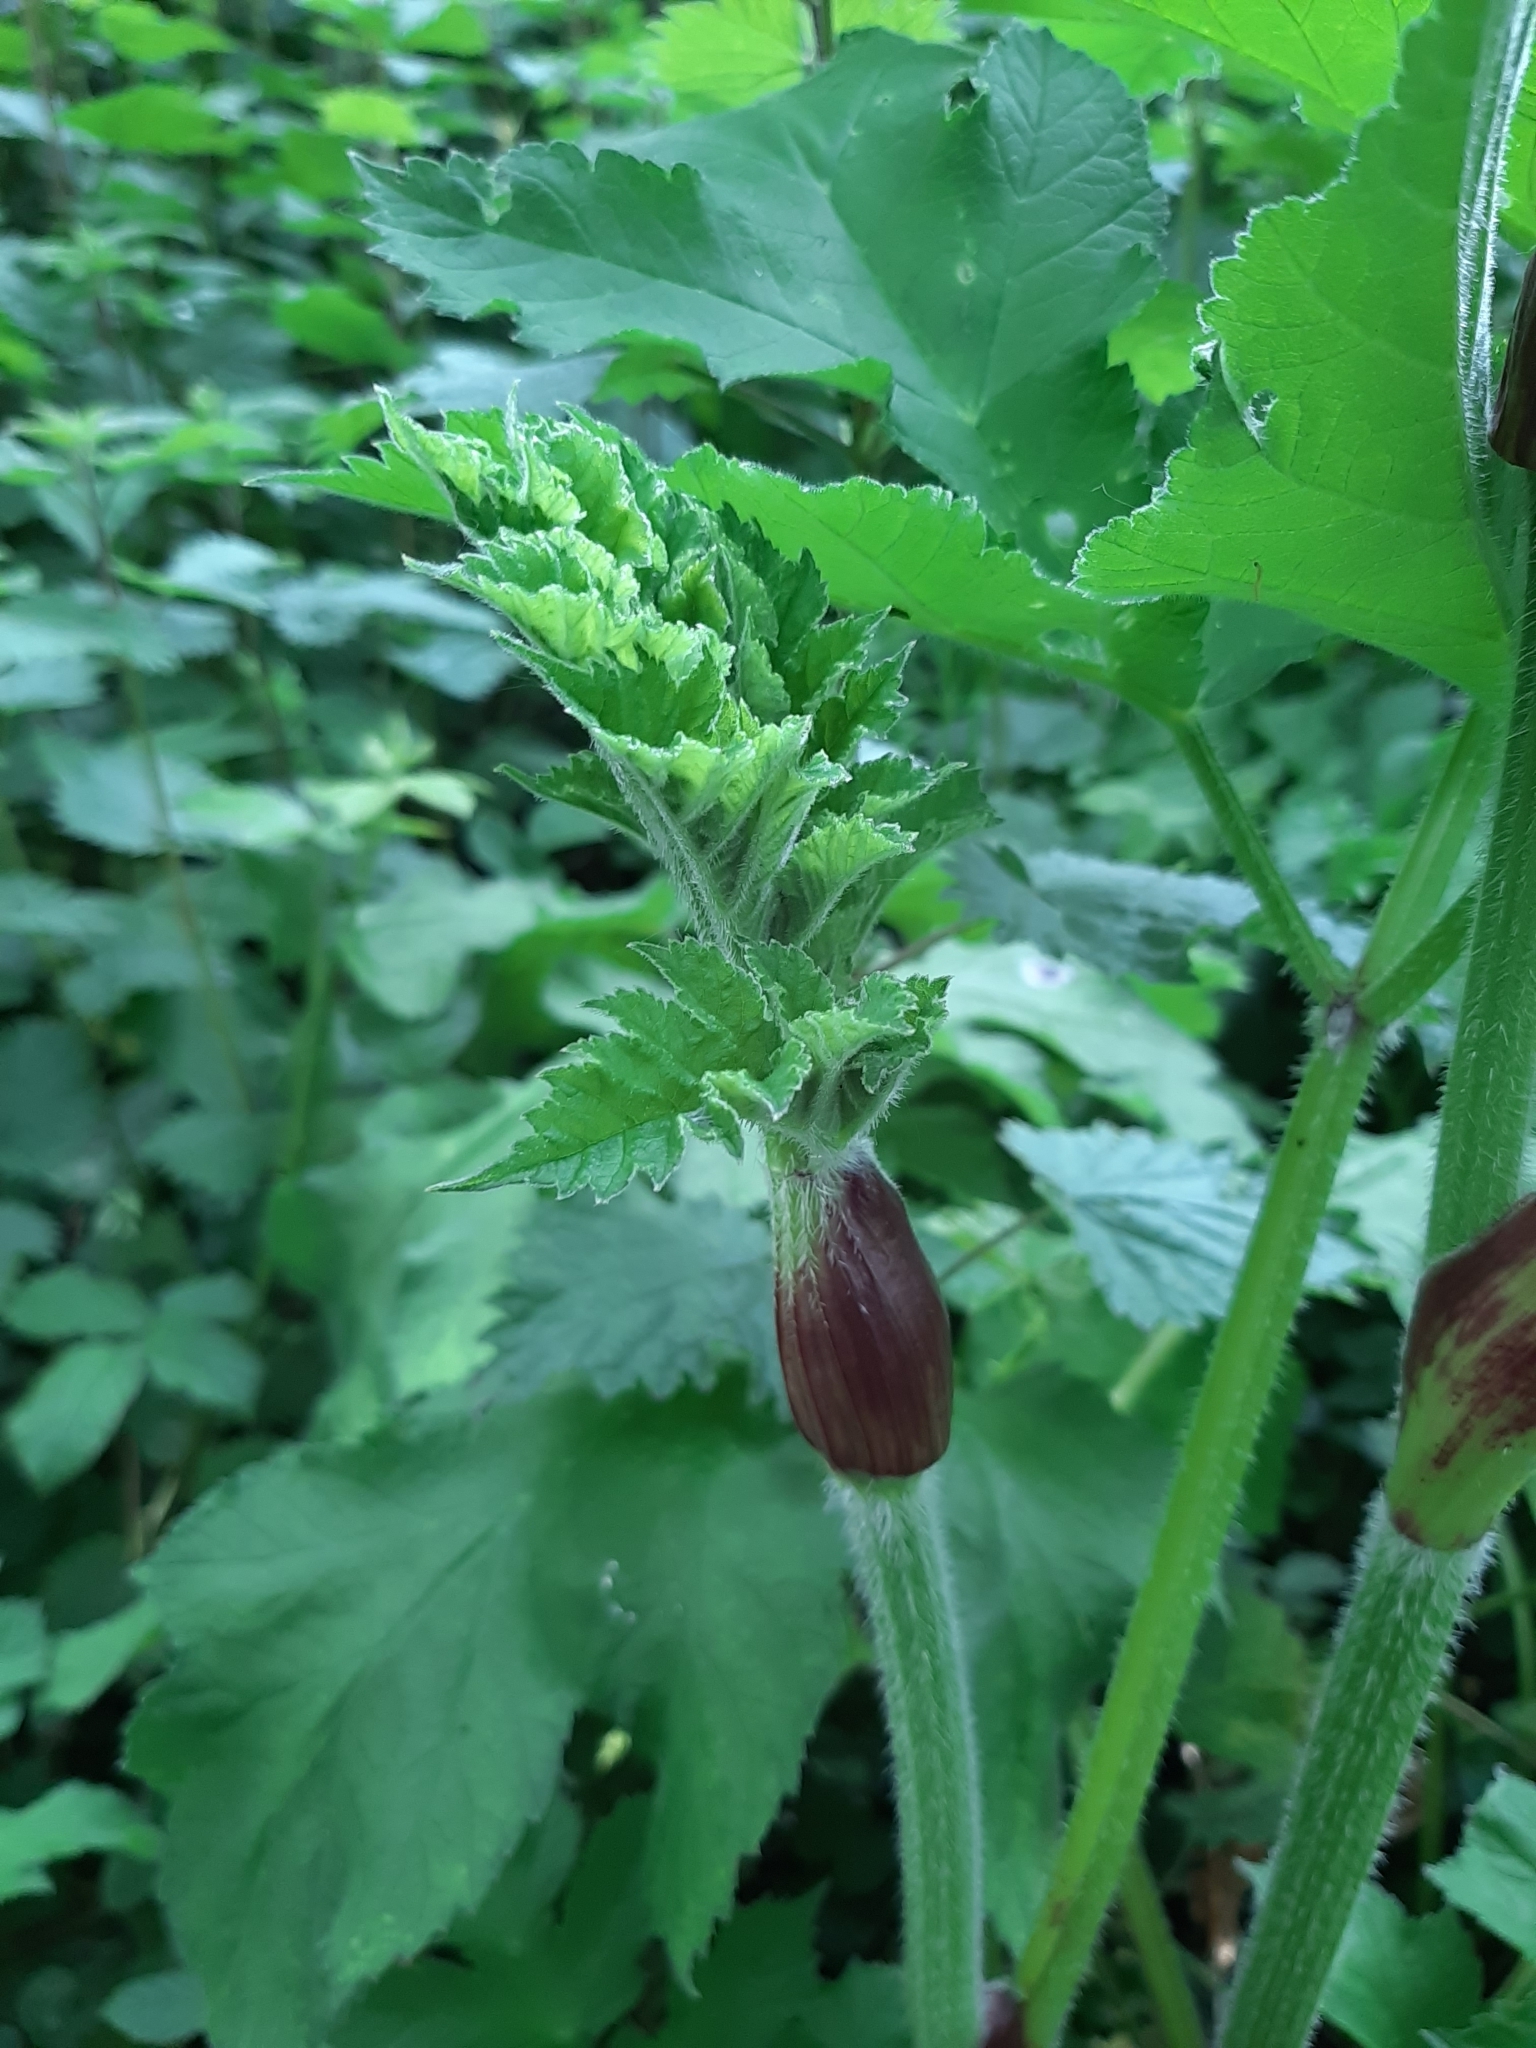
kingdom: Plantae
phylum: Tracheophyta
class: Magnoliopsida
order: Apiales
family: Apiaceae
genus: Heracleum
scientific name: Heracleum sphondylium
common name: Hogweed
